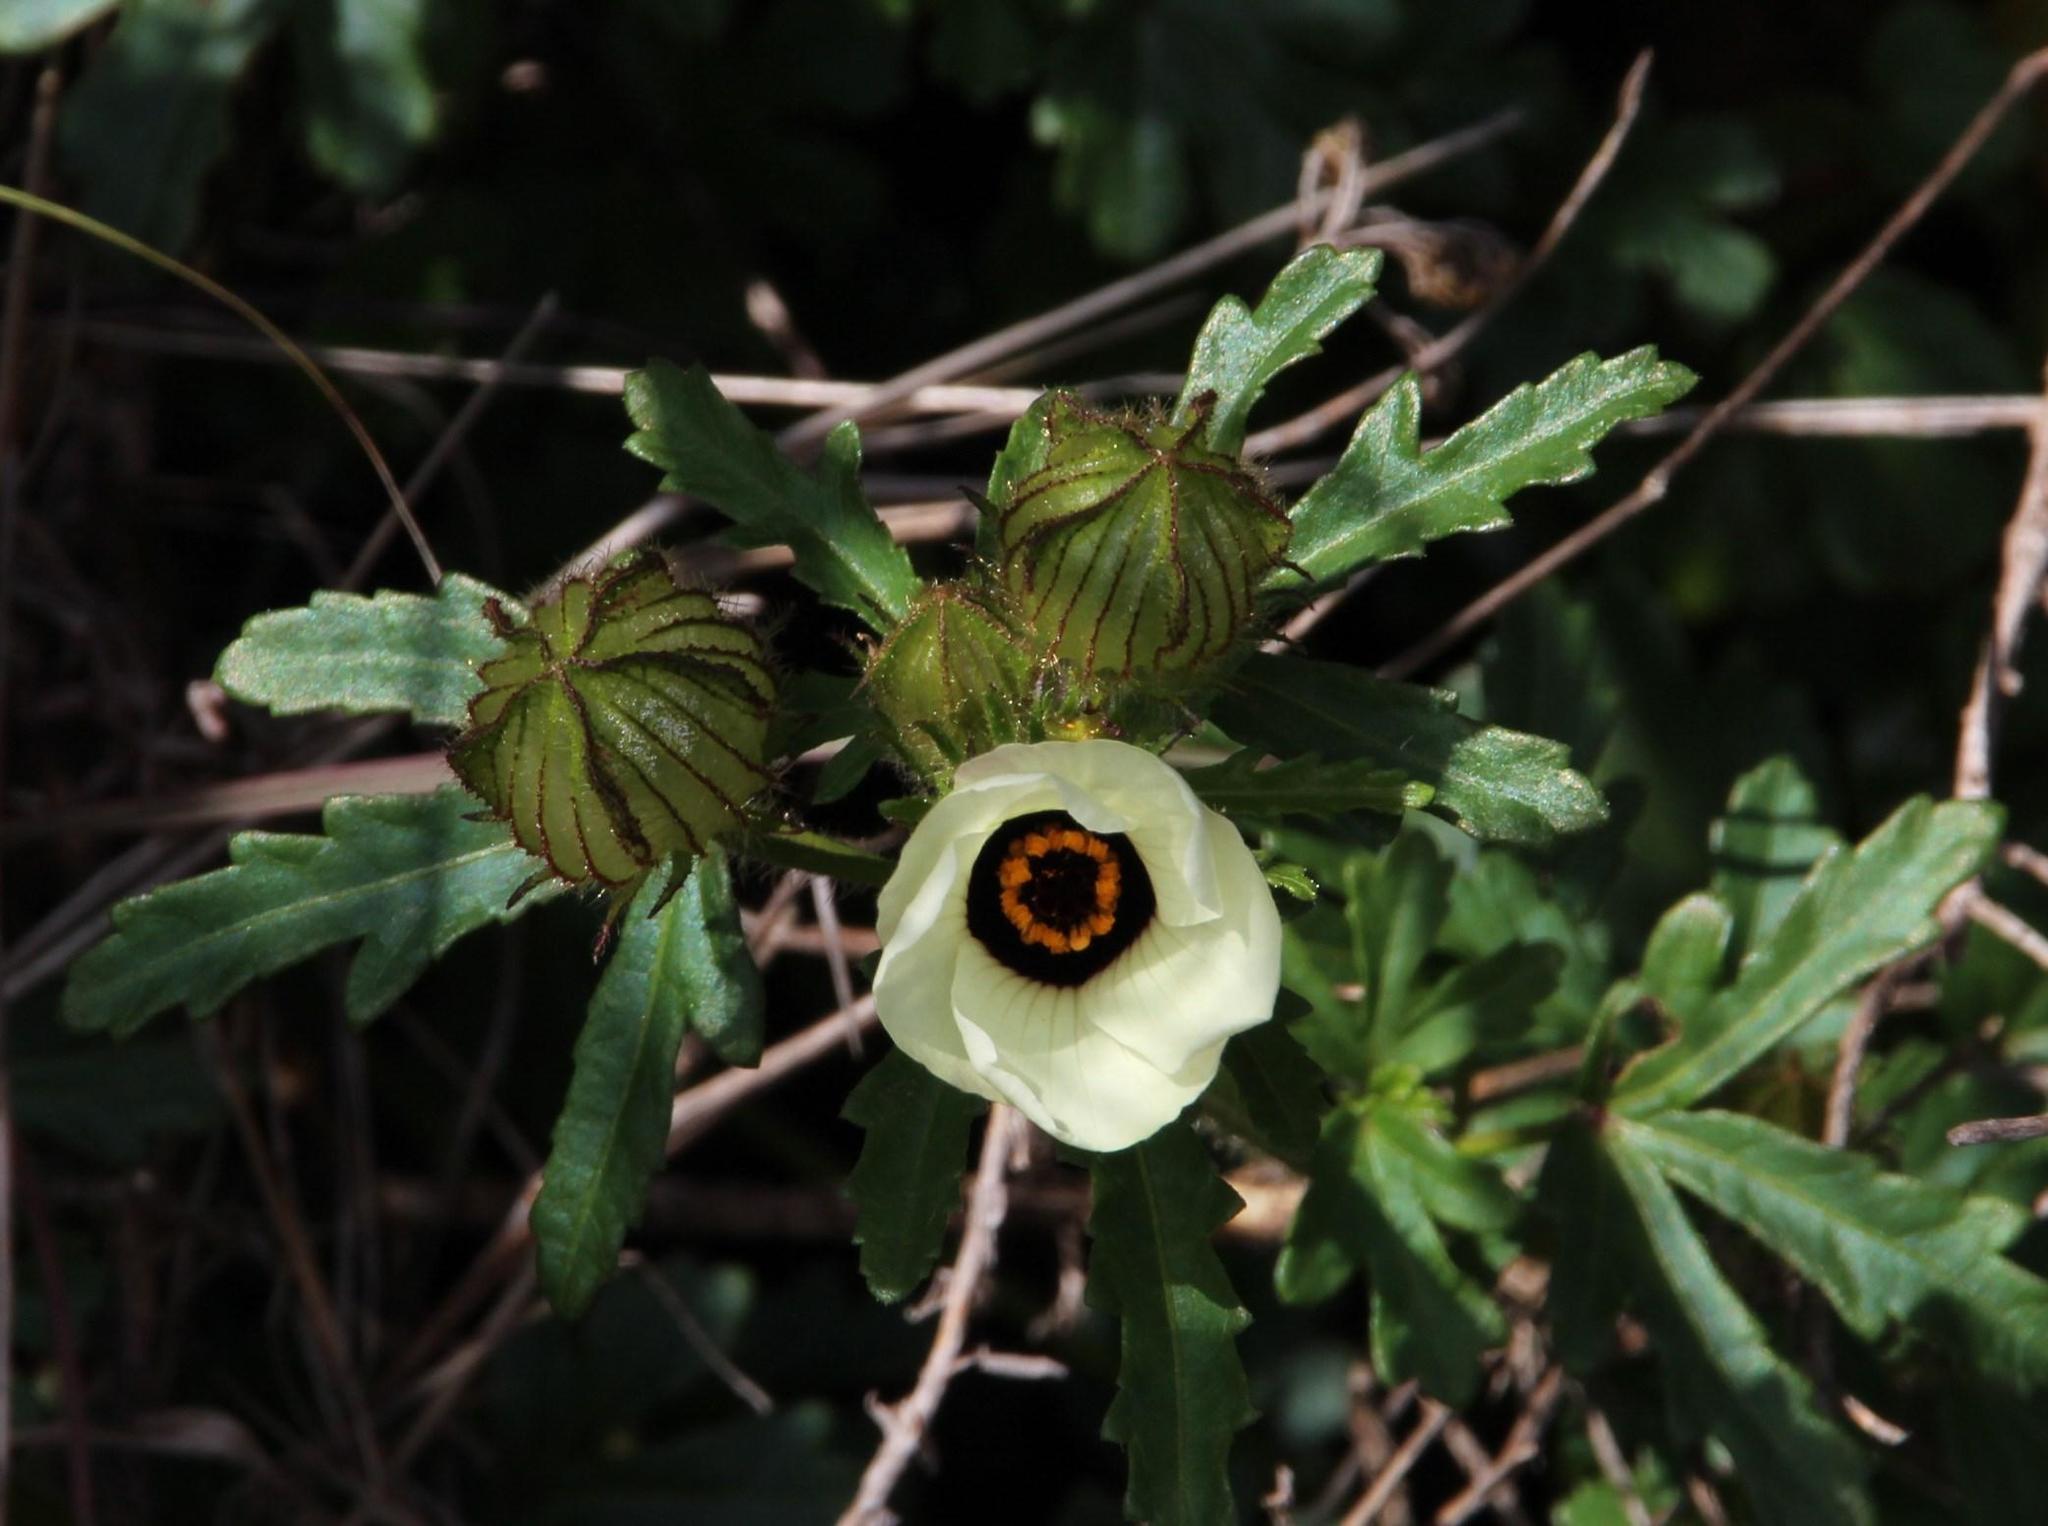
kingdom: Plantae
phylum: Tracheophyta
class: Magnoliopsida
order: Malvales
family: Malvaceae
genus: Hibiscus
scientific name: Hibiscus trionum
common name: Bladder ketmia
